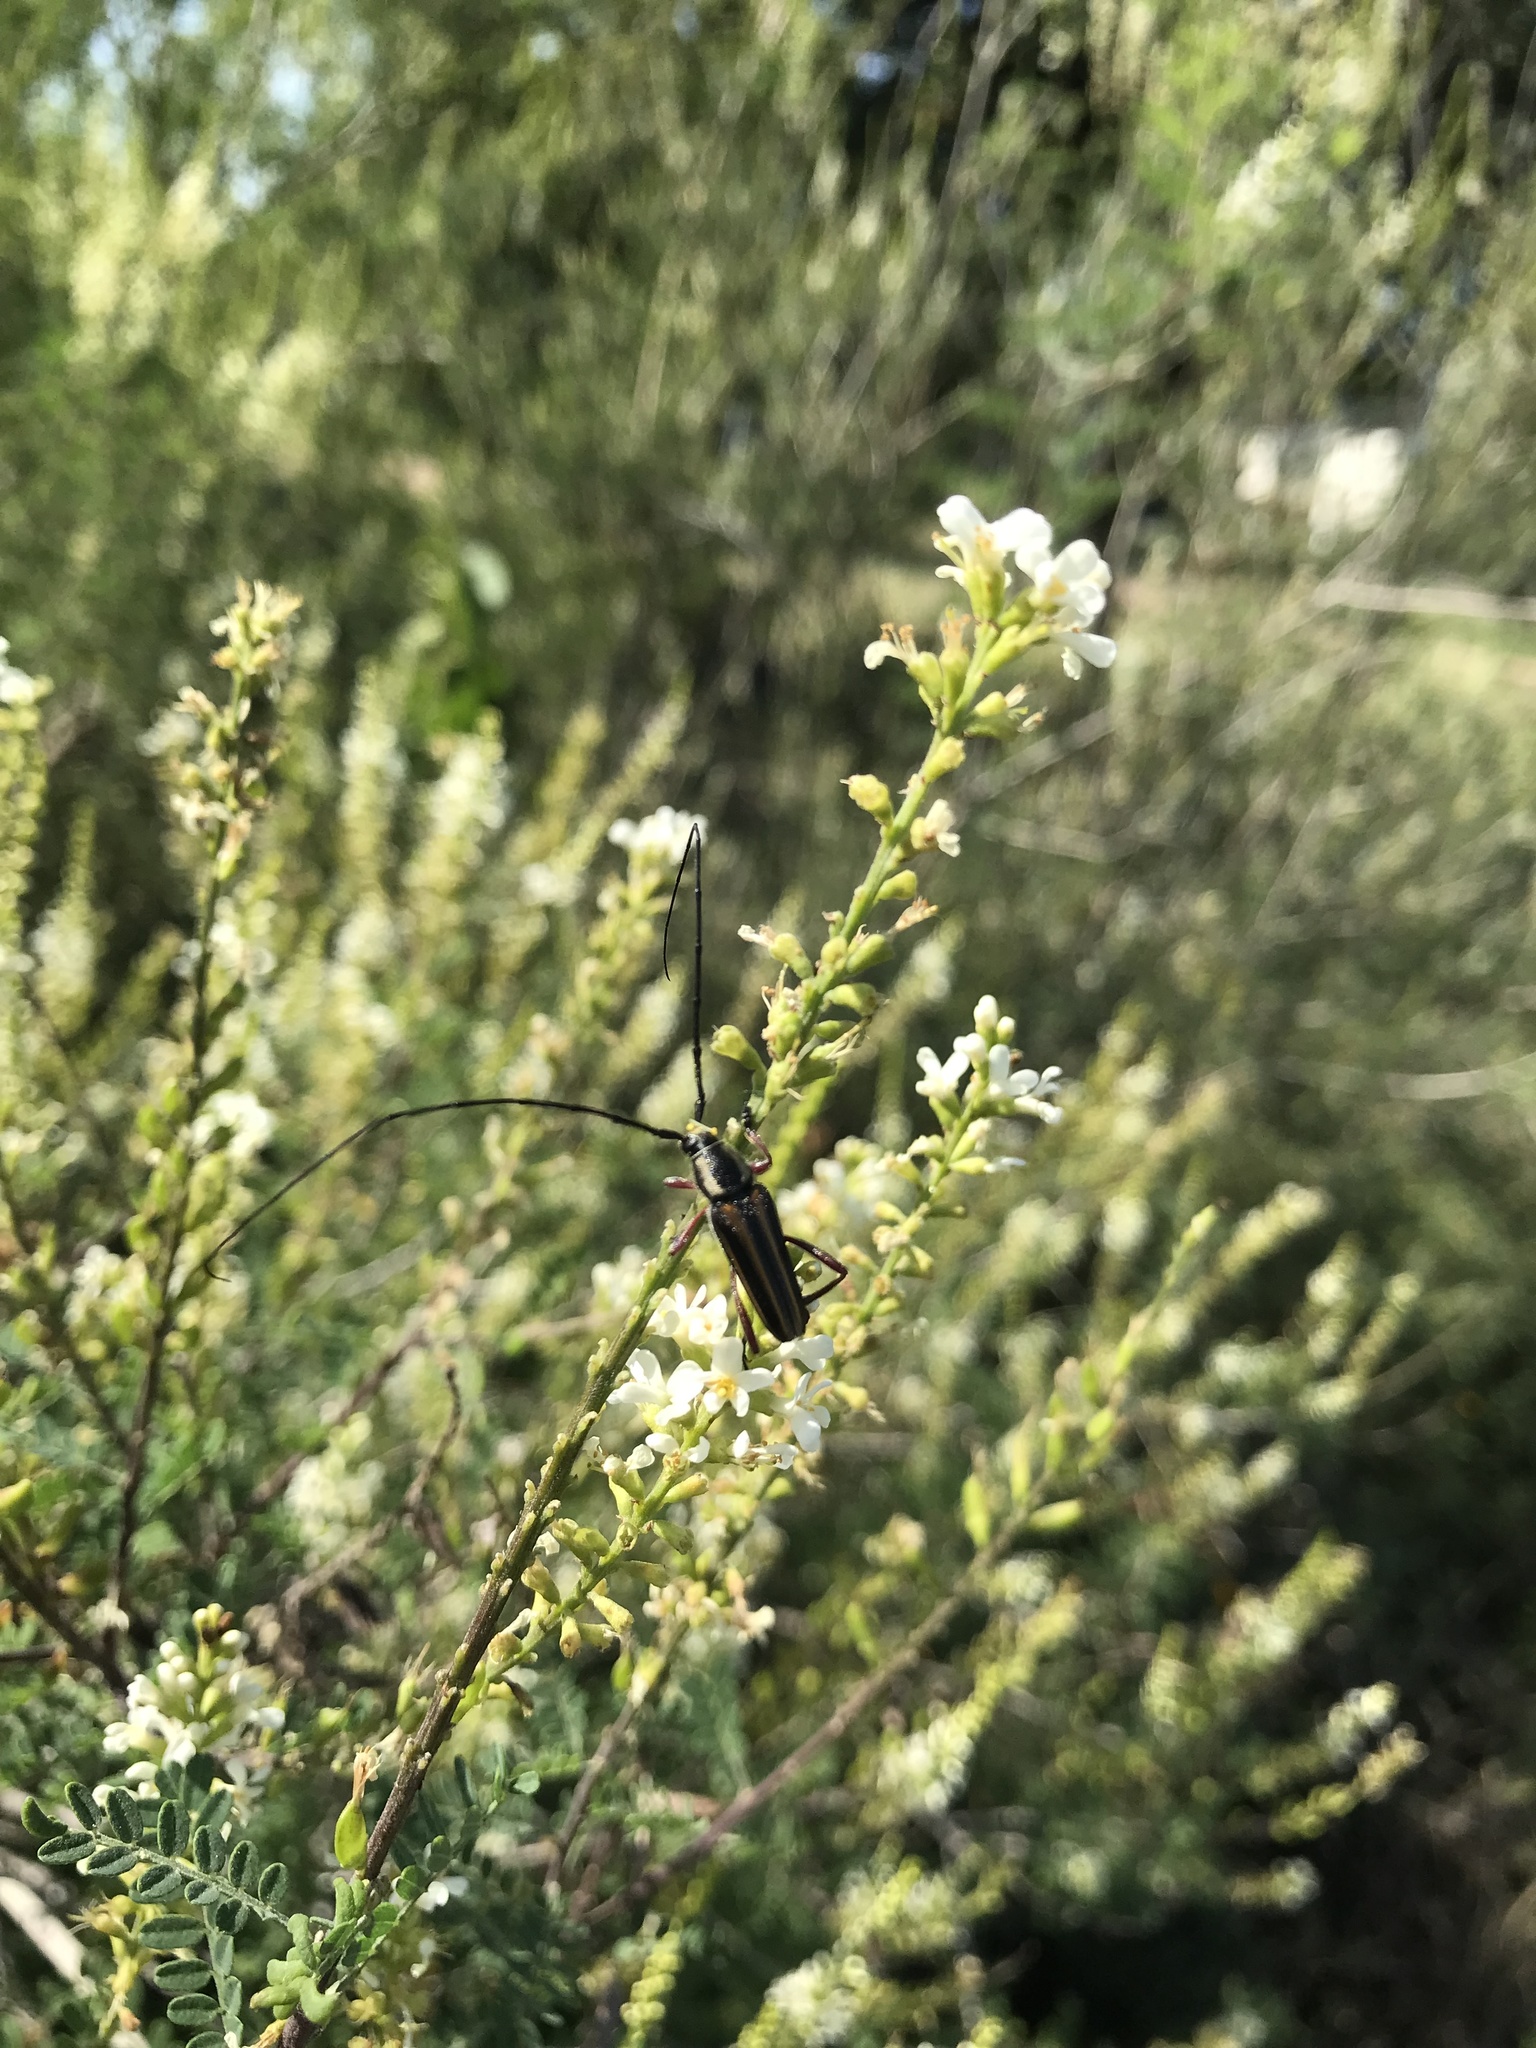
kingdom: Animalia
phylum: Arthropoda
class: Insecta
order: Coleoptera
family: Cerambycidae
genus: Sphaenothecus
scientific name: Sphaenothecus bilineatus
